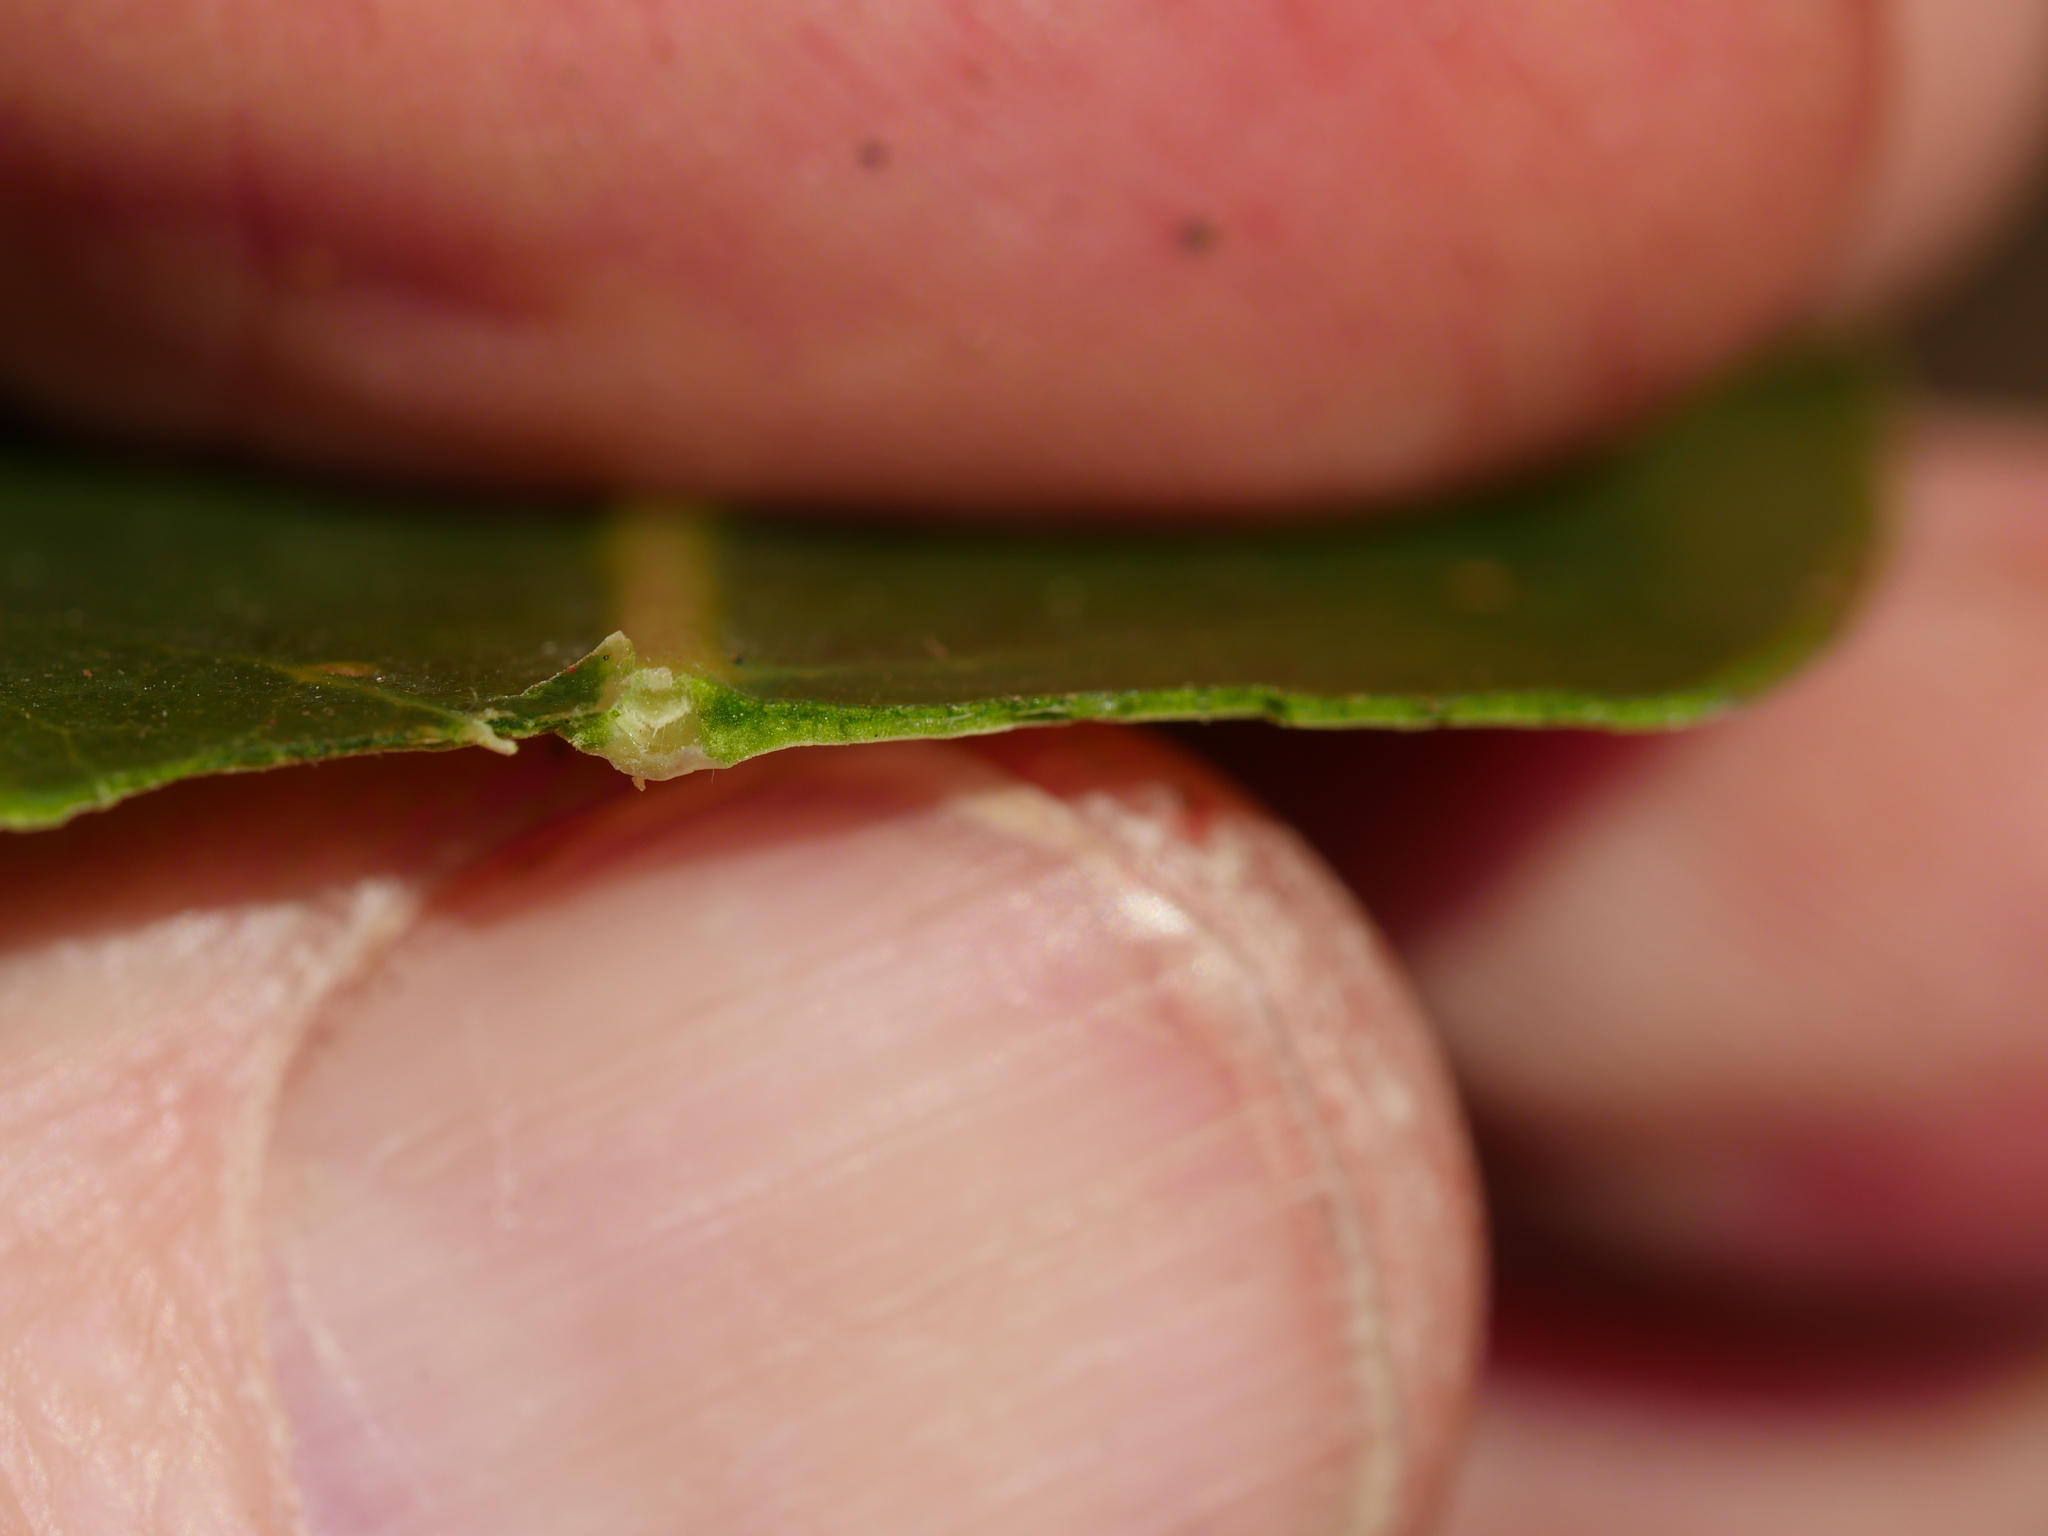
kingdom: Plantae
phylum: Tracheophyta
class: Magnoliopsida
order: Gentianales
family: Rubiaceae
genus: Coprosma
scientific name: Coprosma lucida
